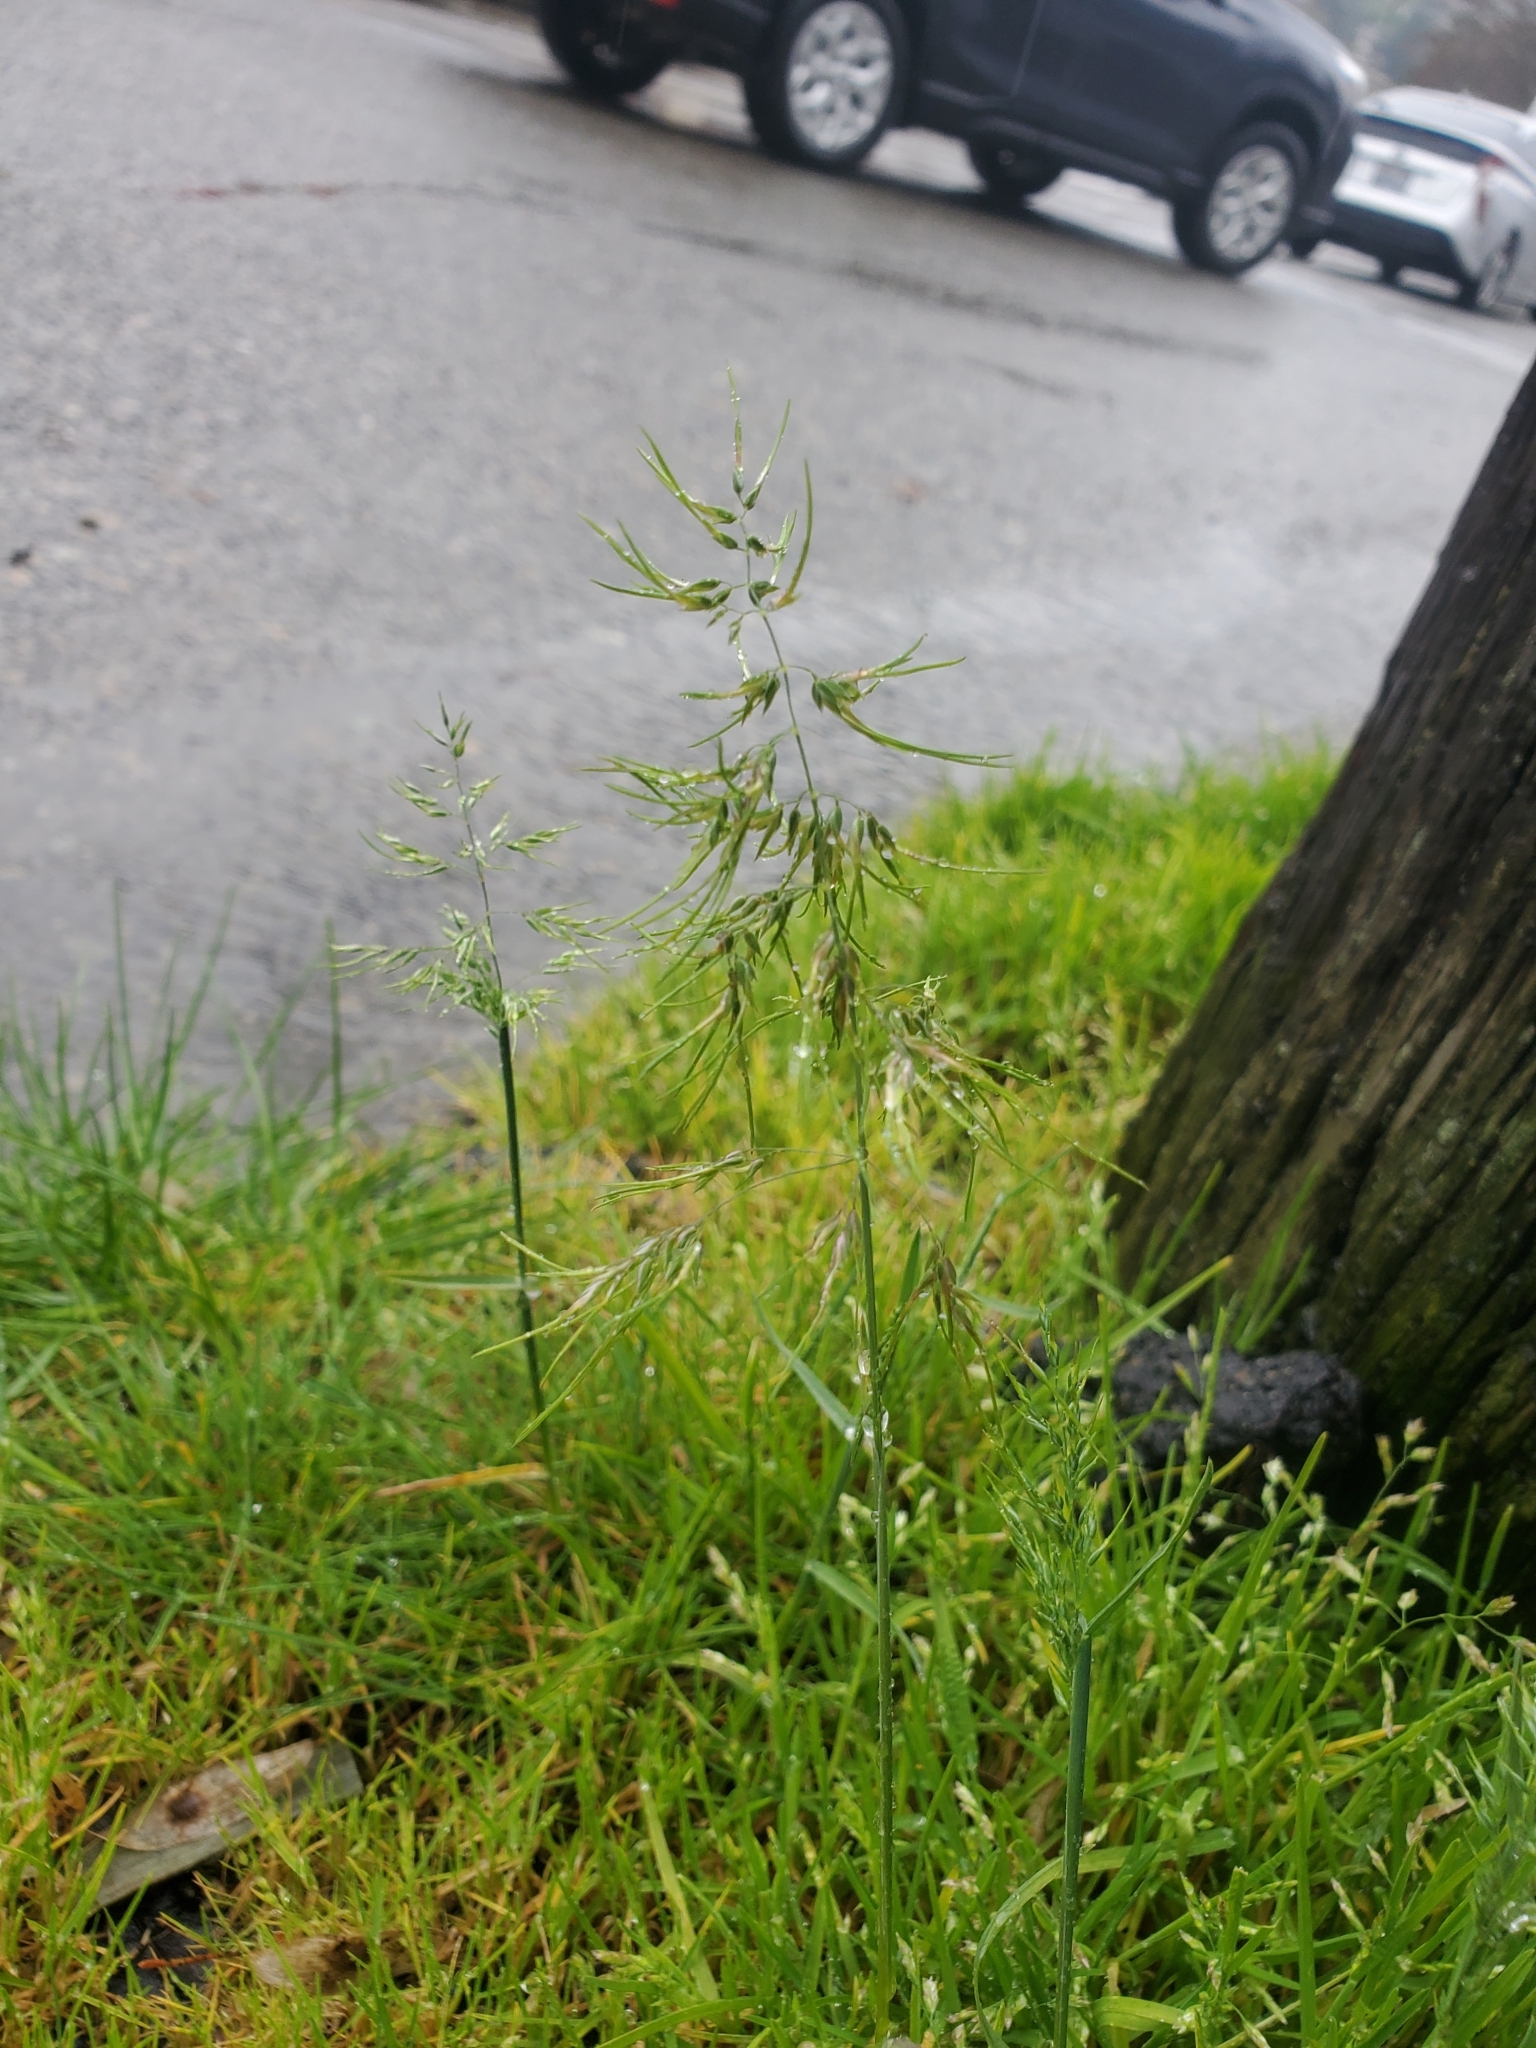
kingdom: Plantae
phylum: Tracheophyta
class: Liliopsida
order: Poales
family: Poaceae
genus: Poa
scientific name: Poa bulbosa
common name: Bulbous bluegrass
